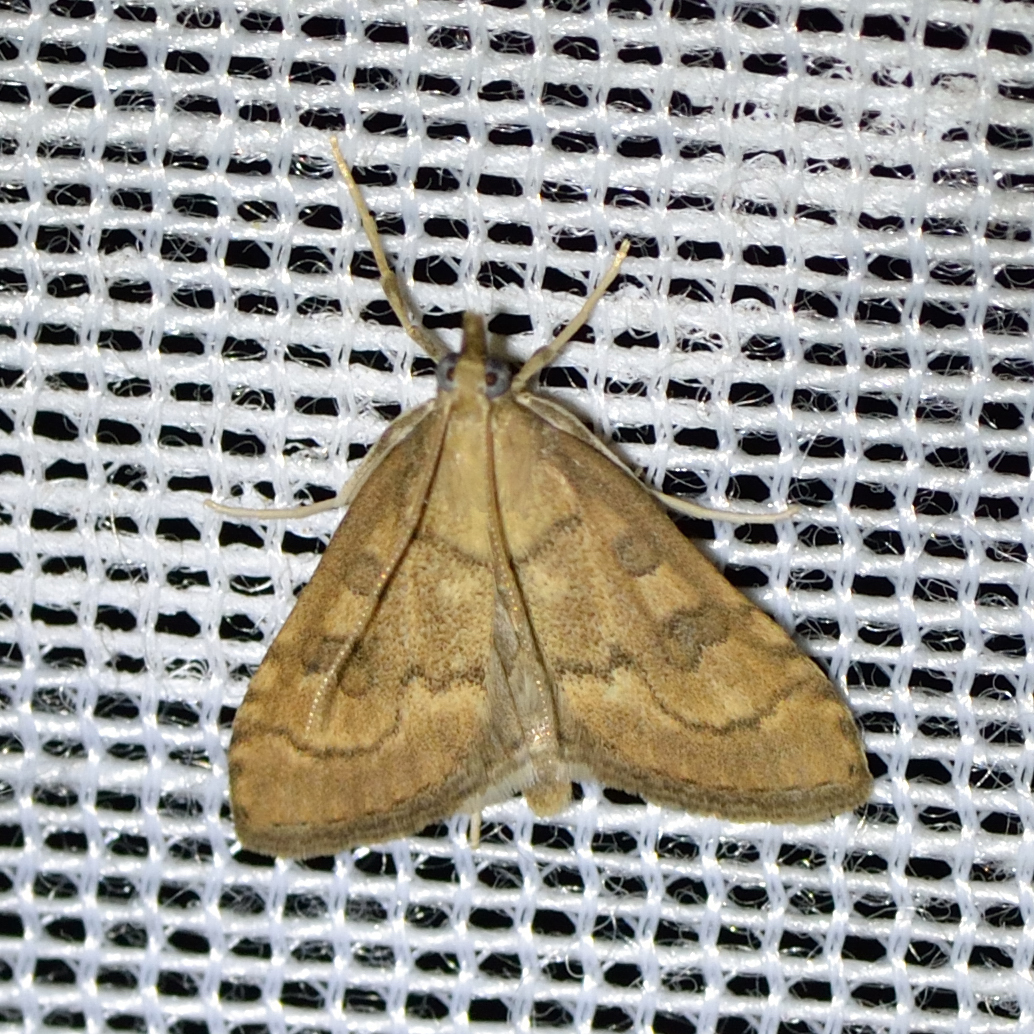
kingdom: Animalia
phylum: Arthropoda
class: Insecta
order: Lepidoptera
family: Crambidae
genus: Udea
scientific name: Udea fulvalis
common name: Fulvous pearl
